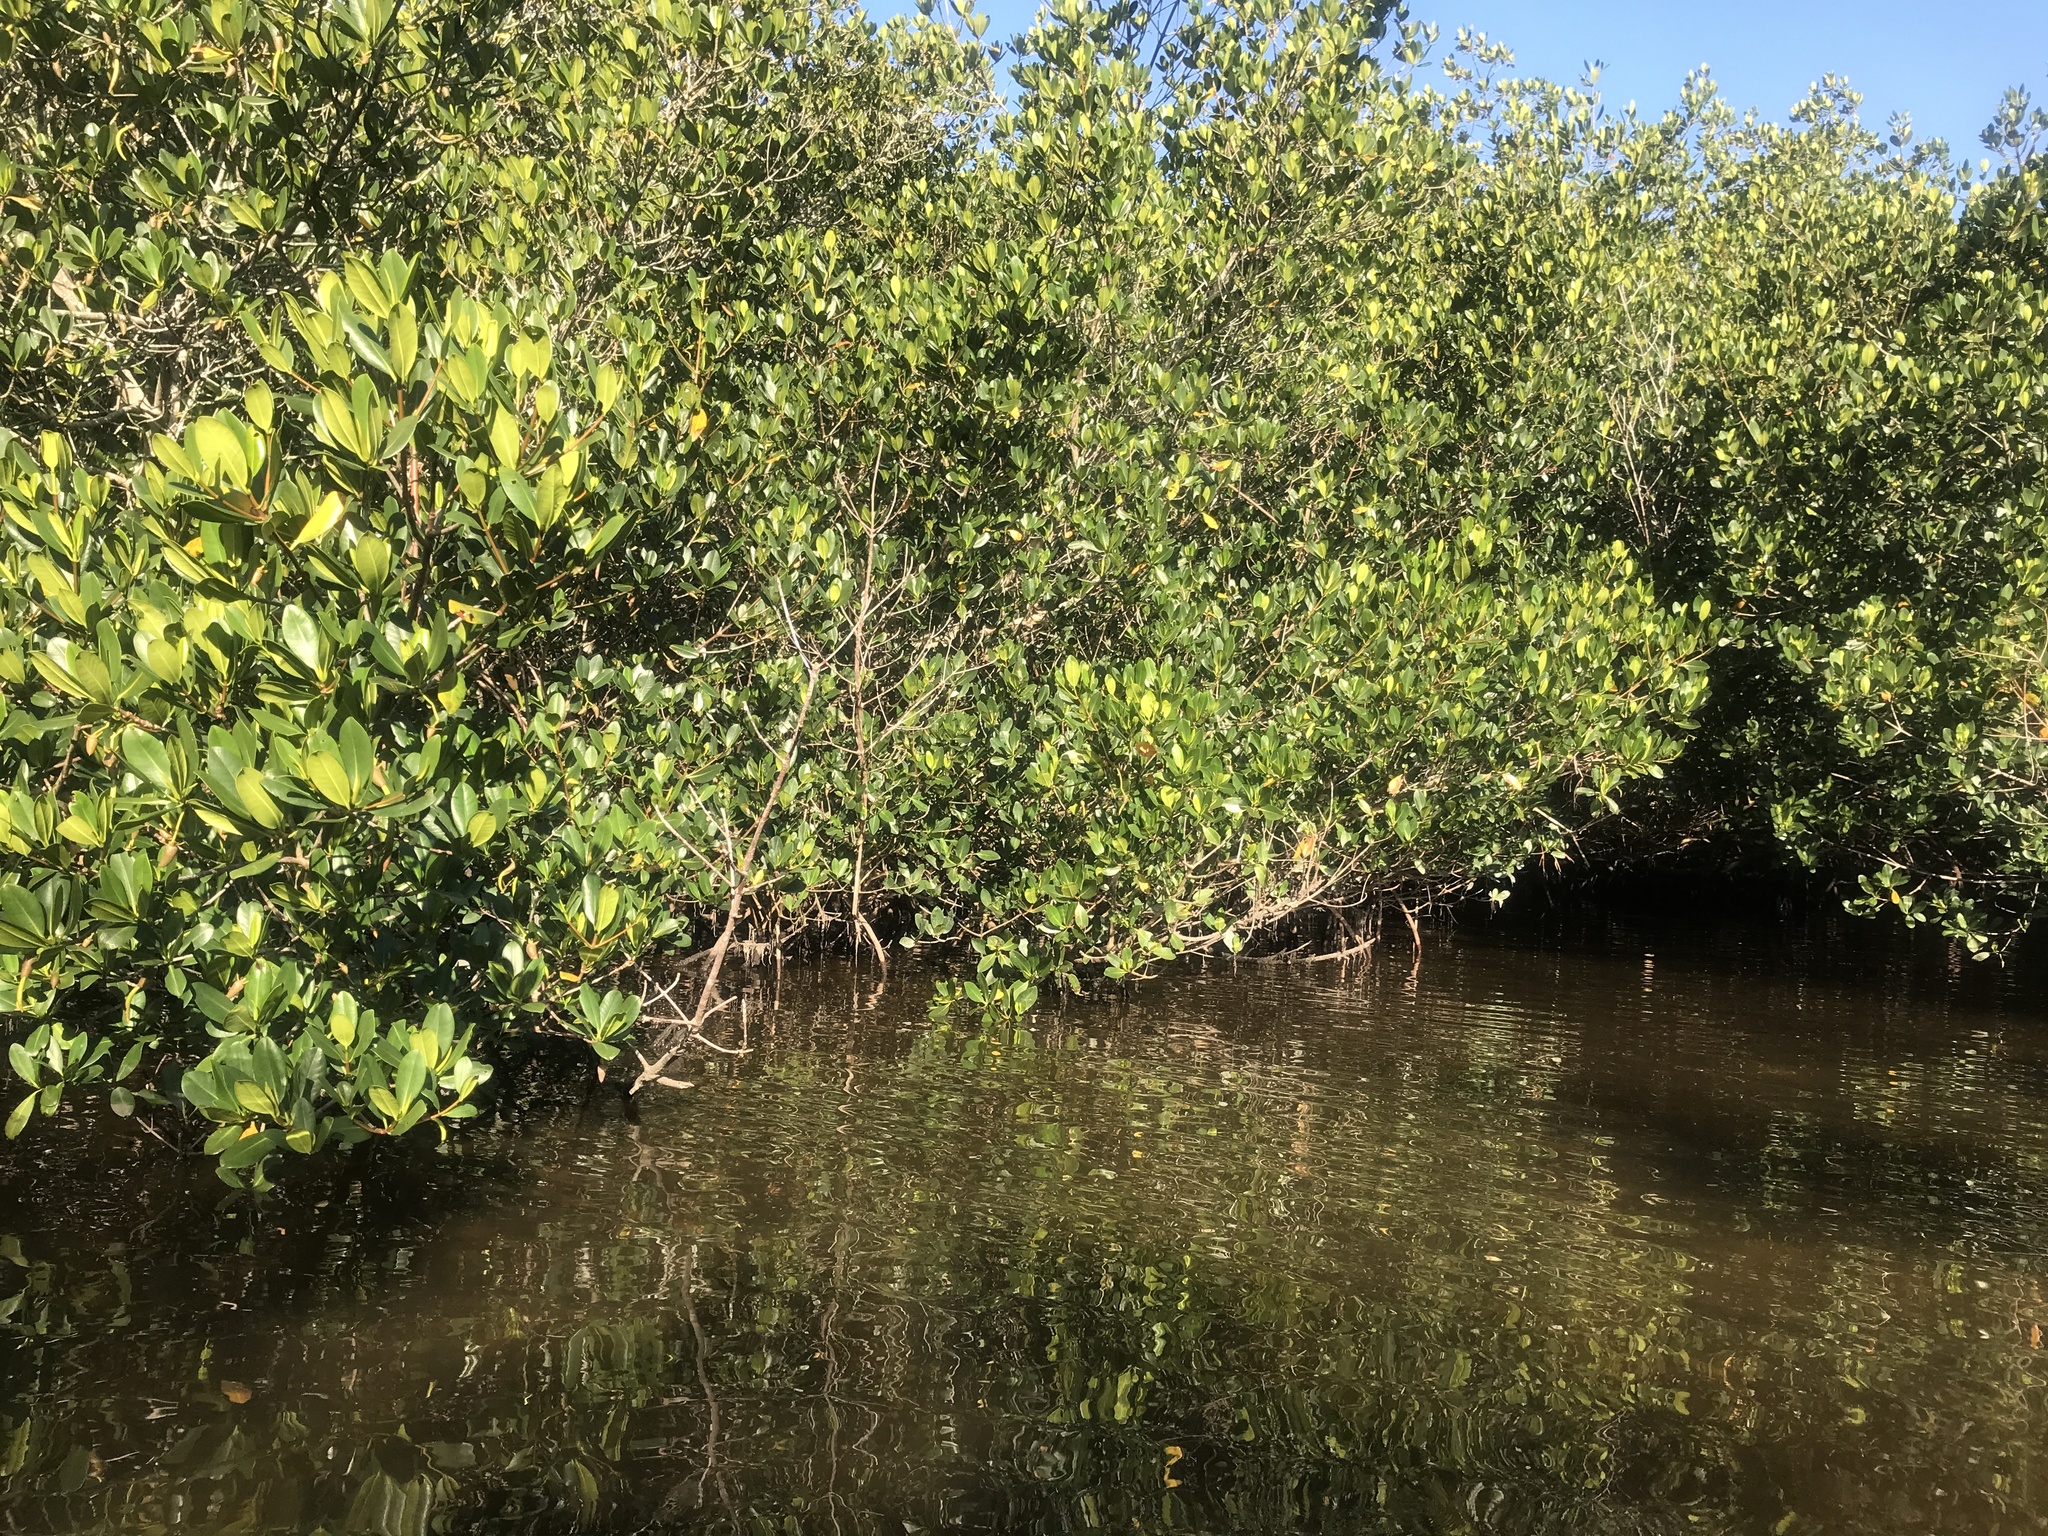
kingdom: Plantae
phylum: Tracheophyta
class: Magnoliopsida
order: Malpighiales
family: Rhizophoraceae
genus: Rhizophora
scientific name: Rhizophora mangle
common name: Red mangrove
